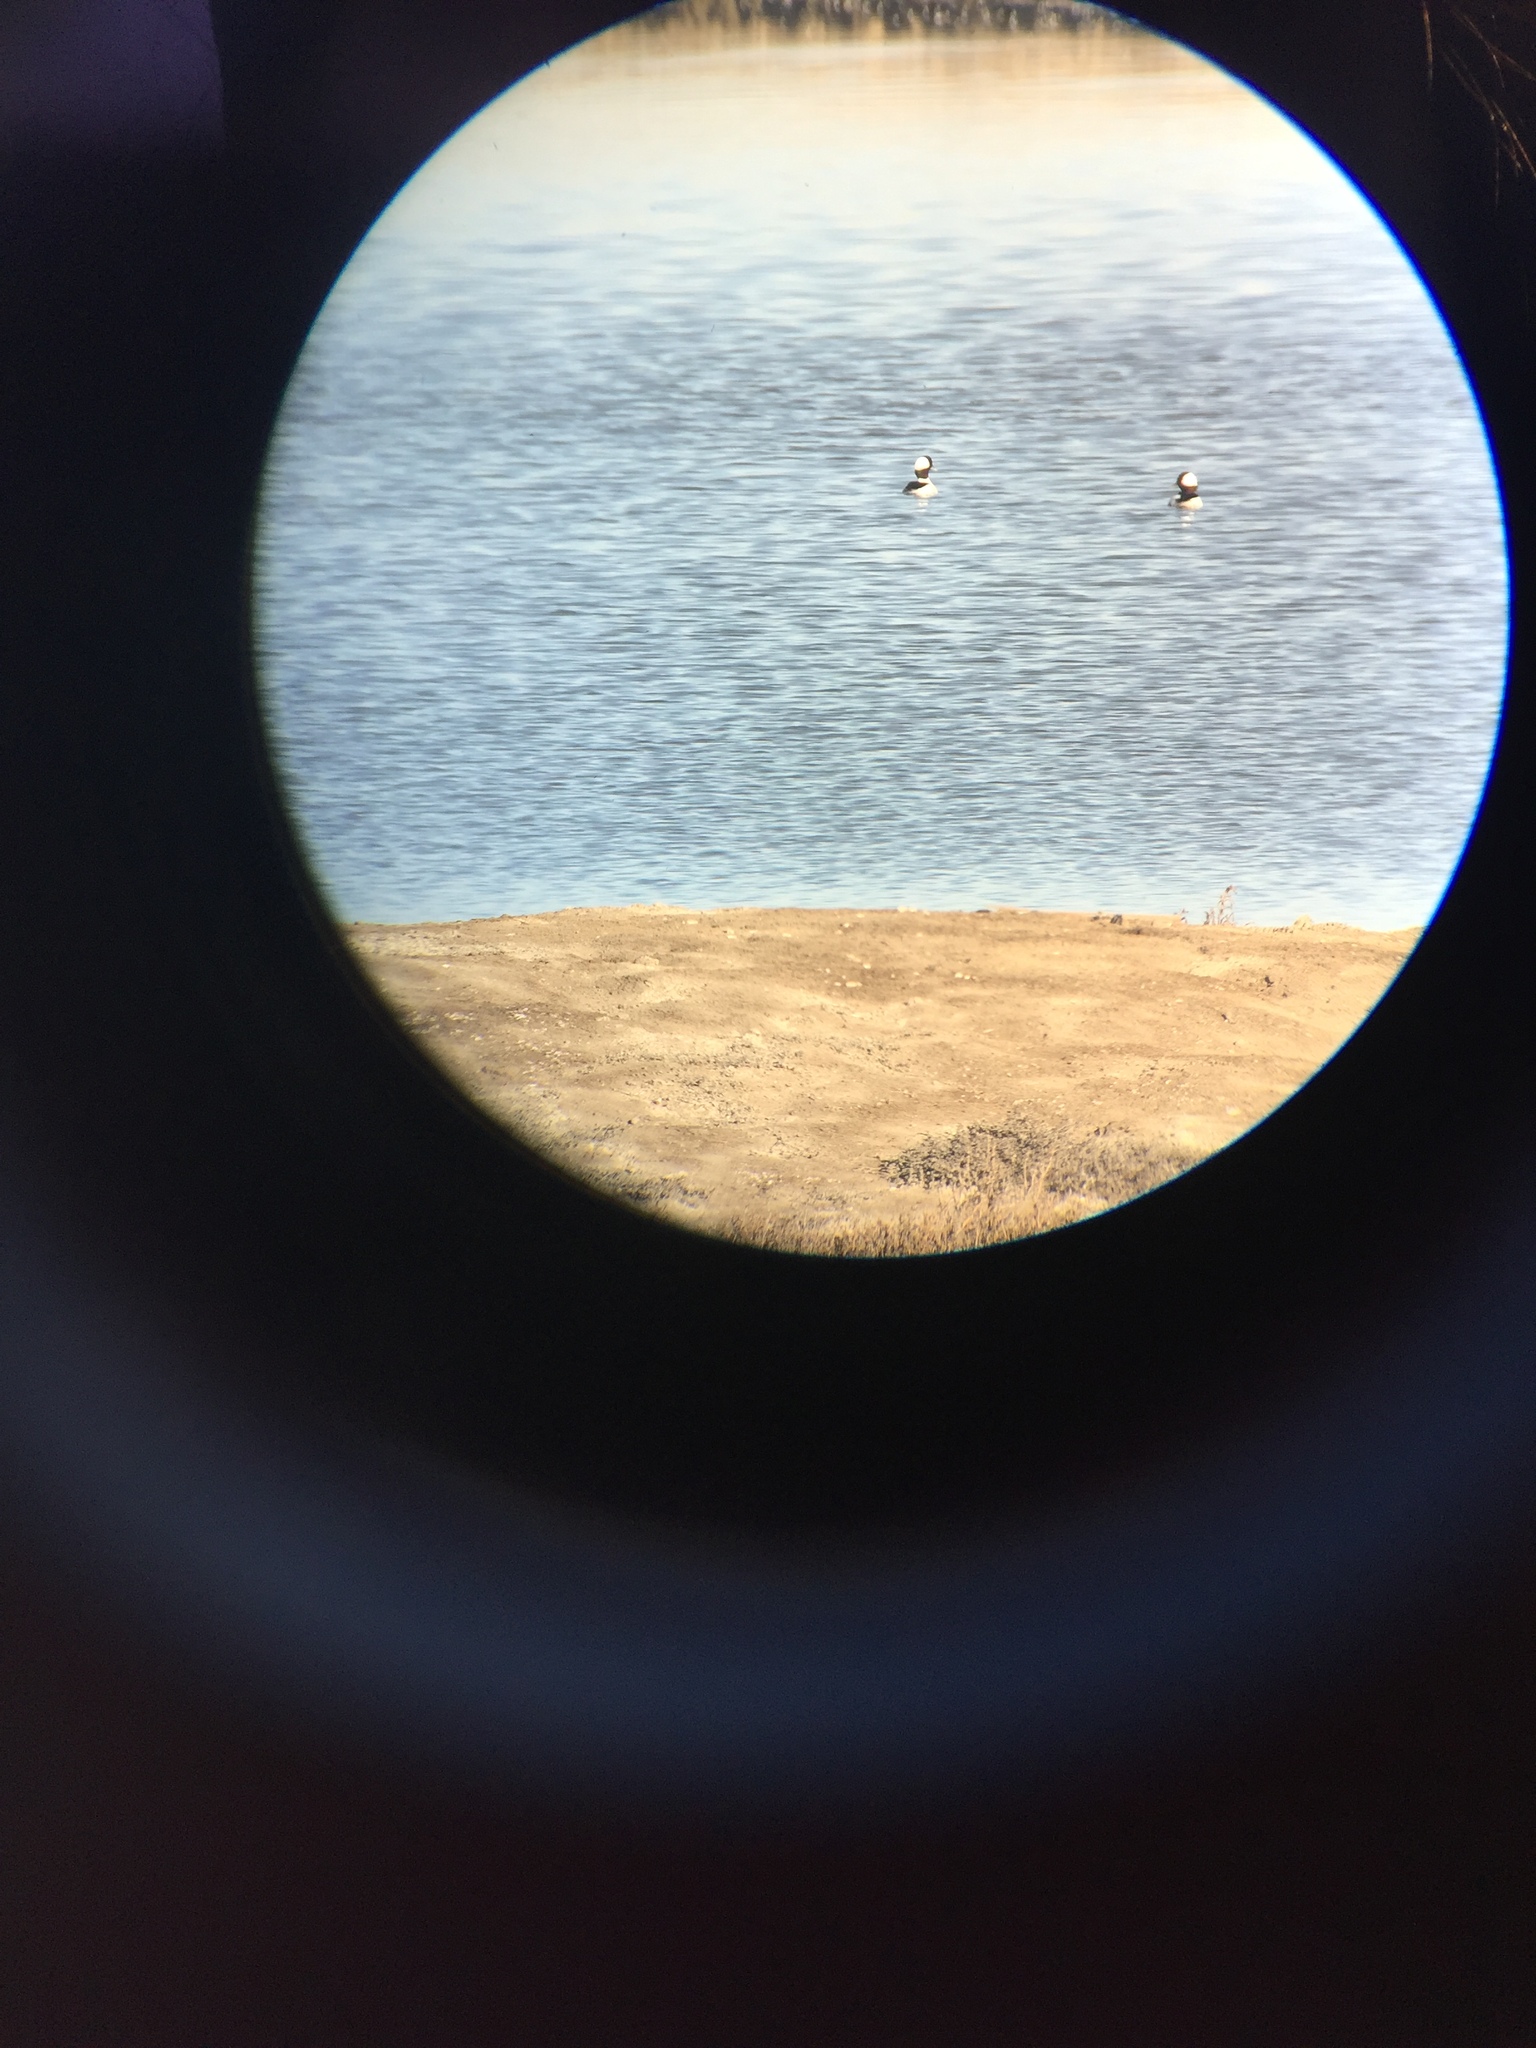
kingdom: Animalia
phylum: Chordata
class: Aves
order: Anseriformes
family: Anatidae
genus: Bucephala
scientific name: Bucephala albeola
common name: Bufflehead
